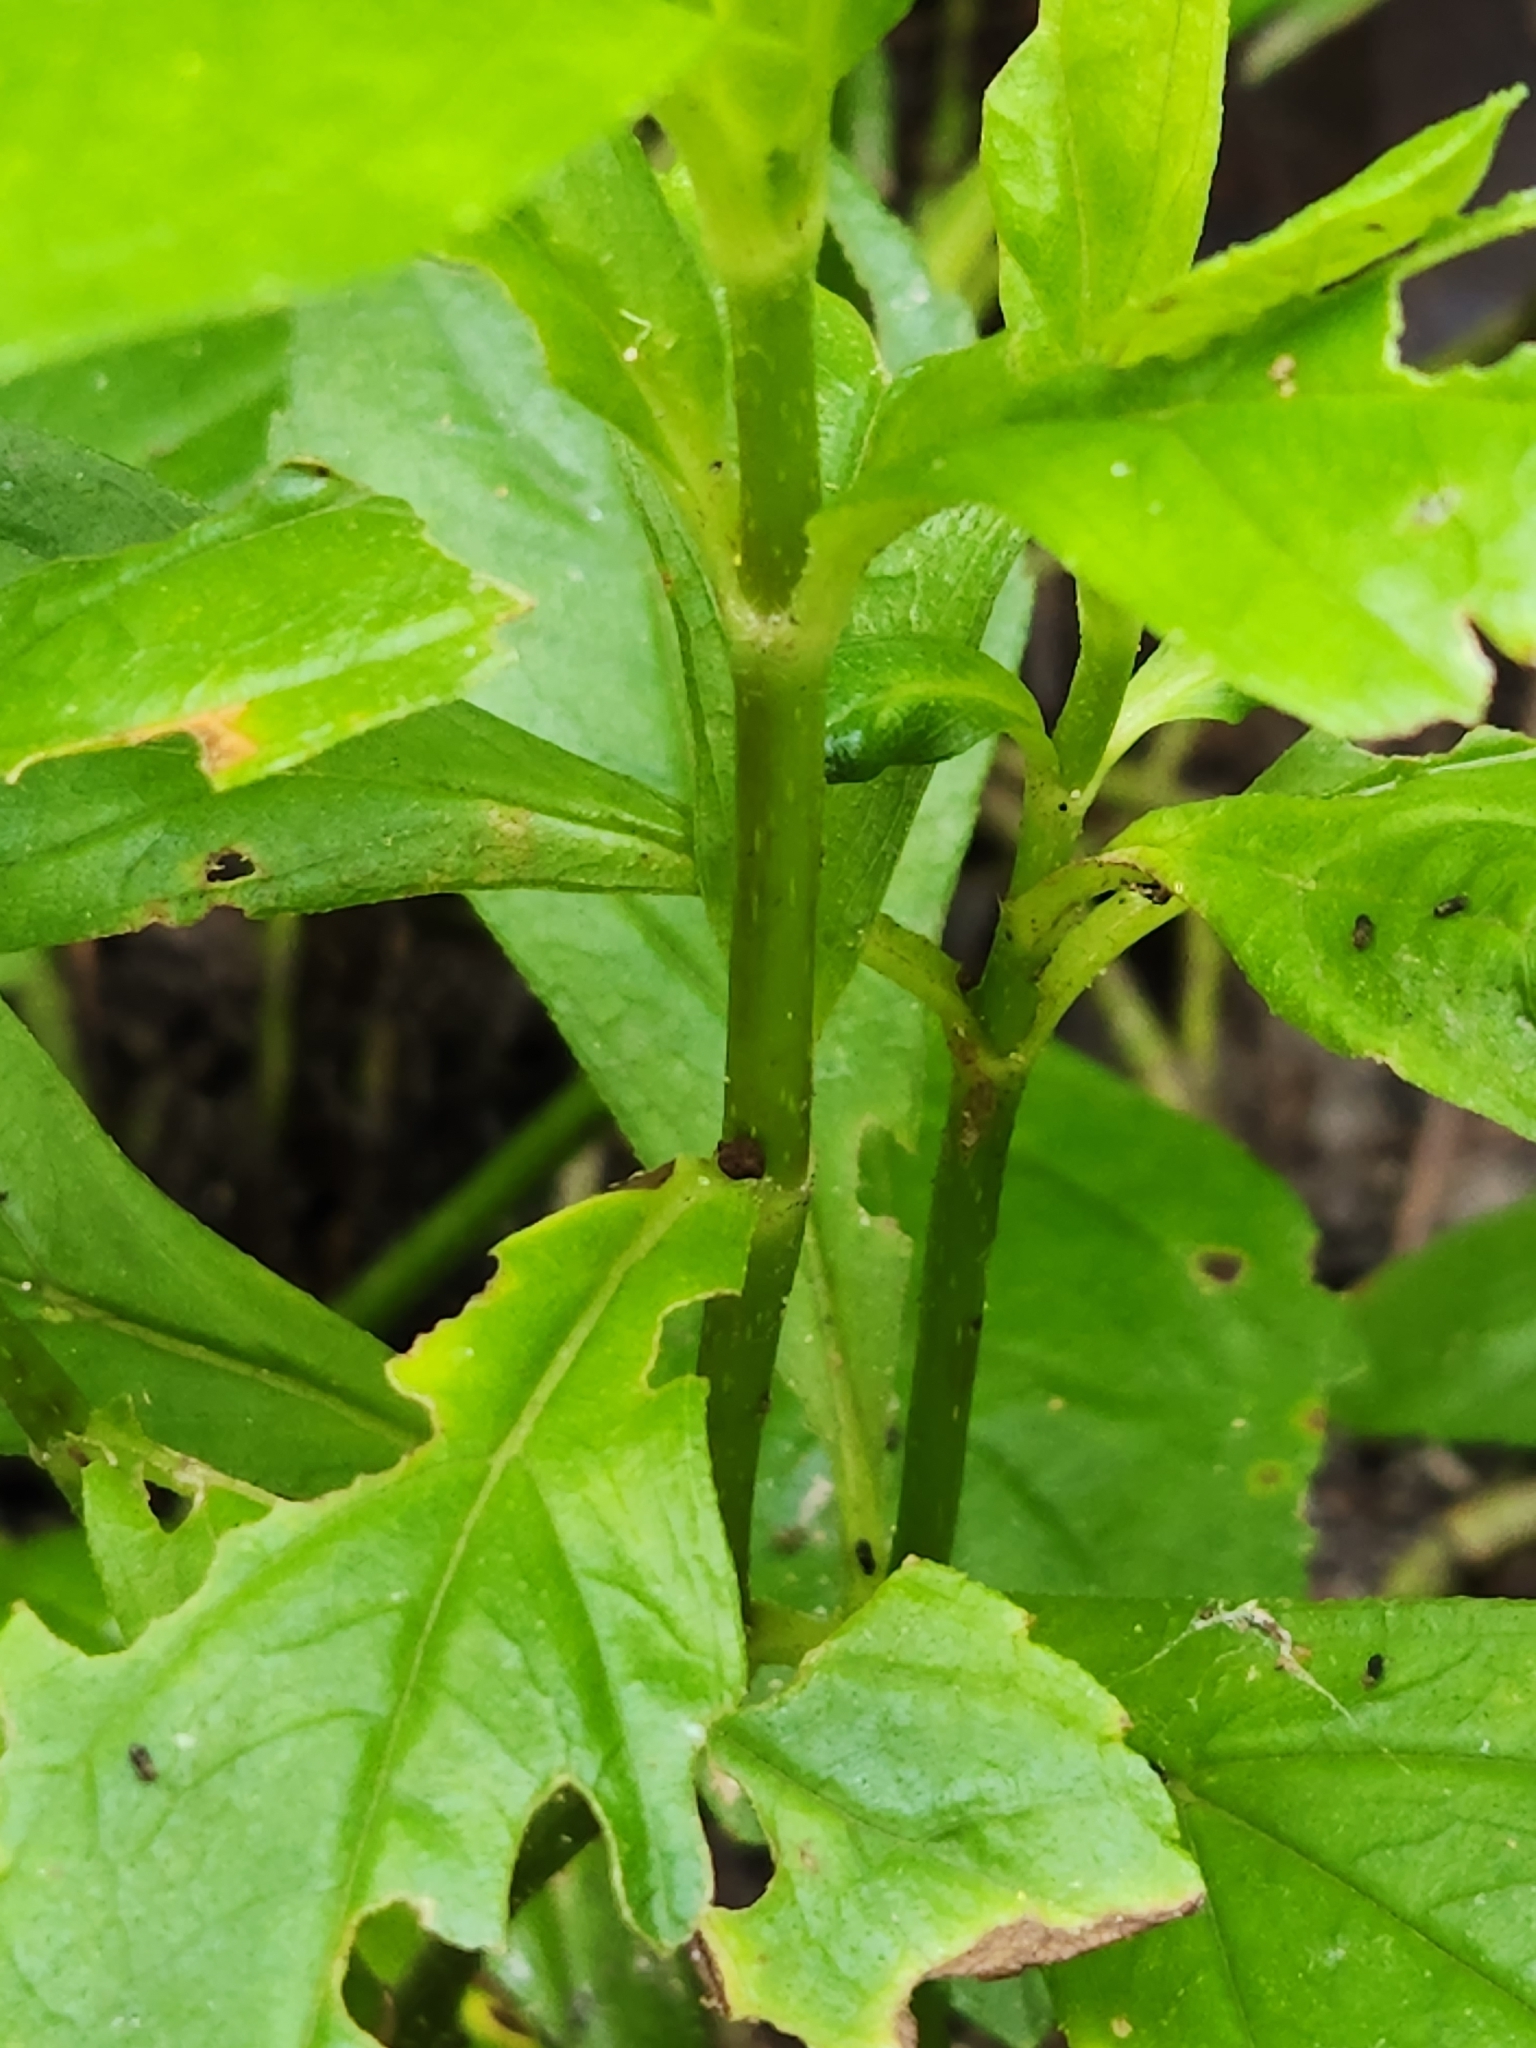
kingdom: Plantae
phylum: Tracheophyta
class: Magnoliopsida
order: Asterales
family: Asteraceae
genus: Sphagneticola
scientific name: Sphagneticola trilobata
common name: Bay biscayne creeping-oxeye
